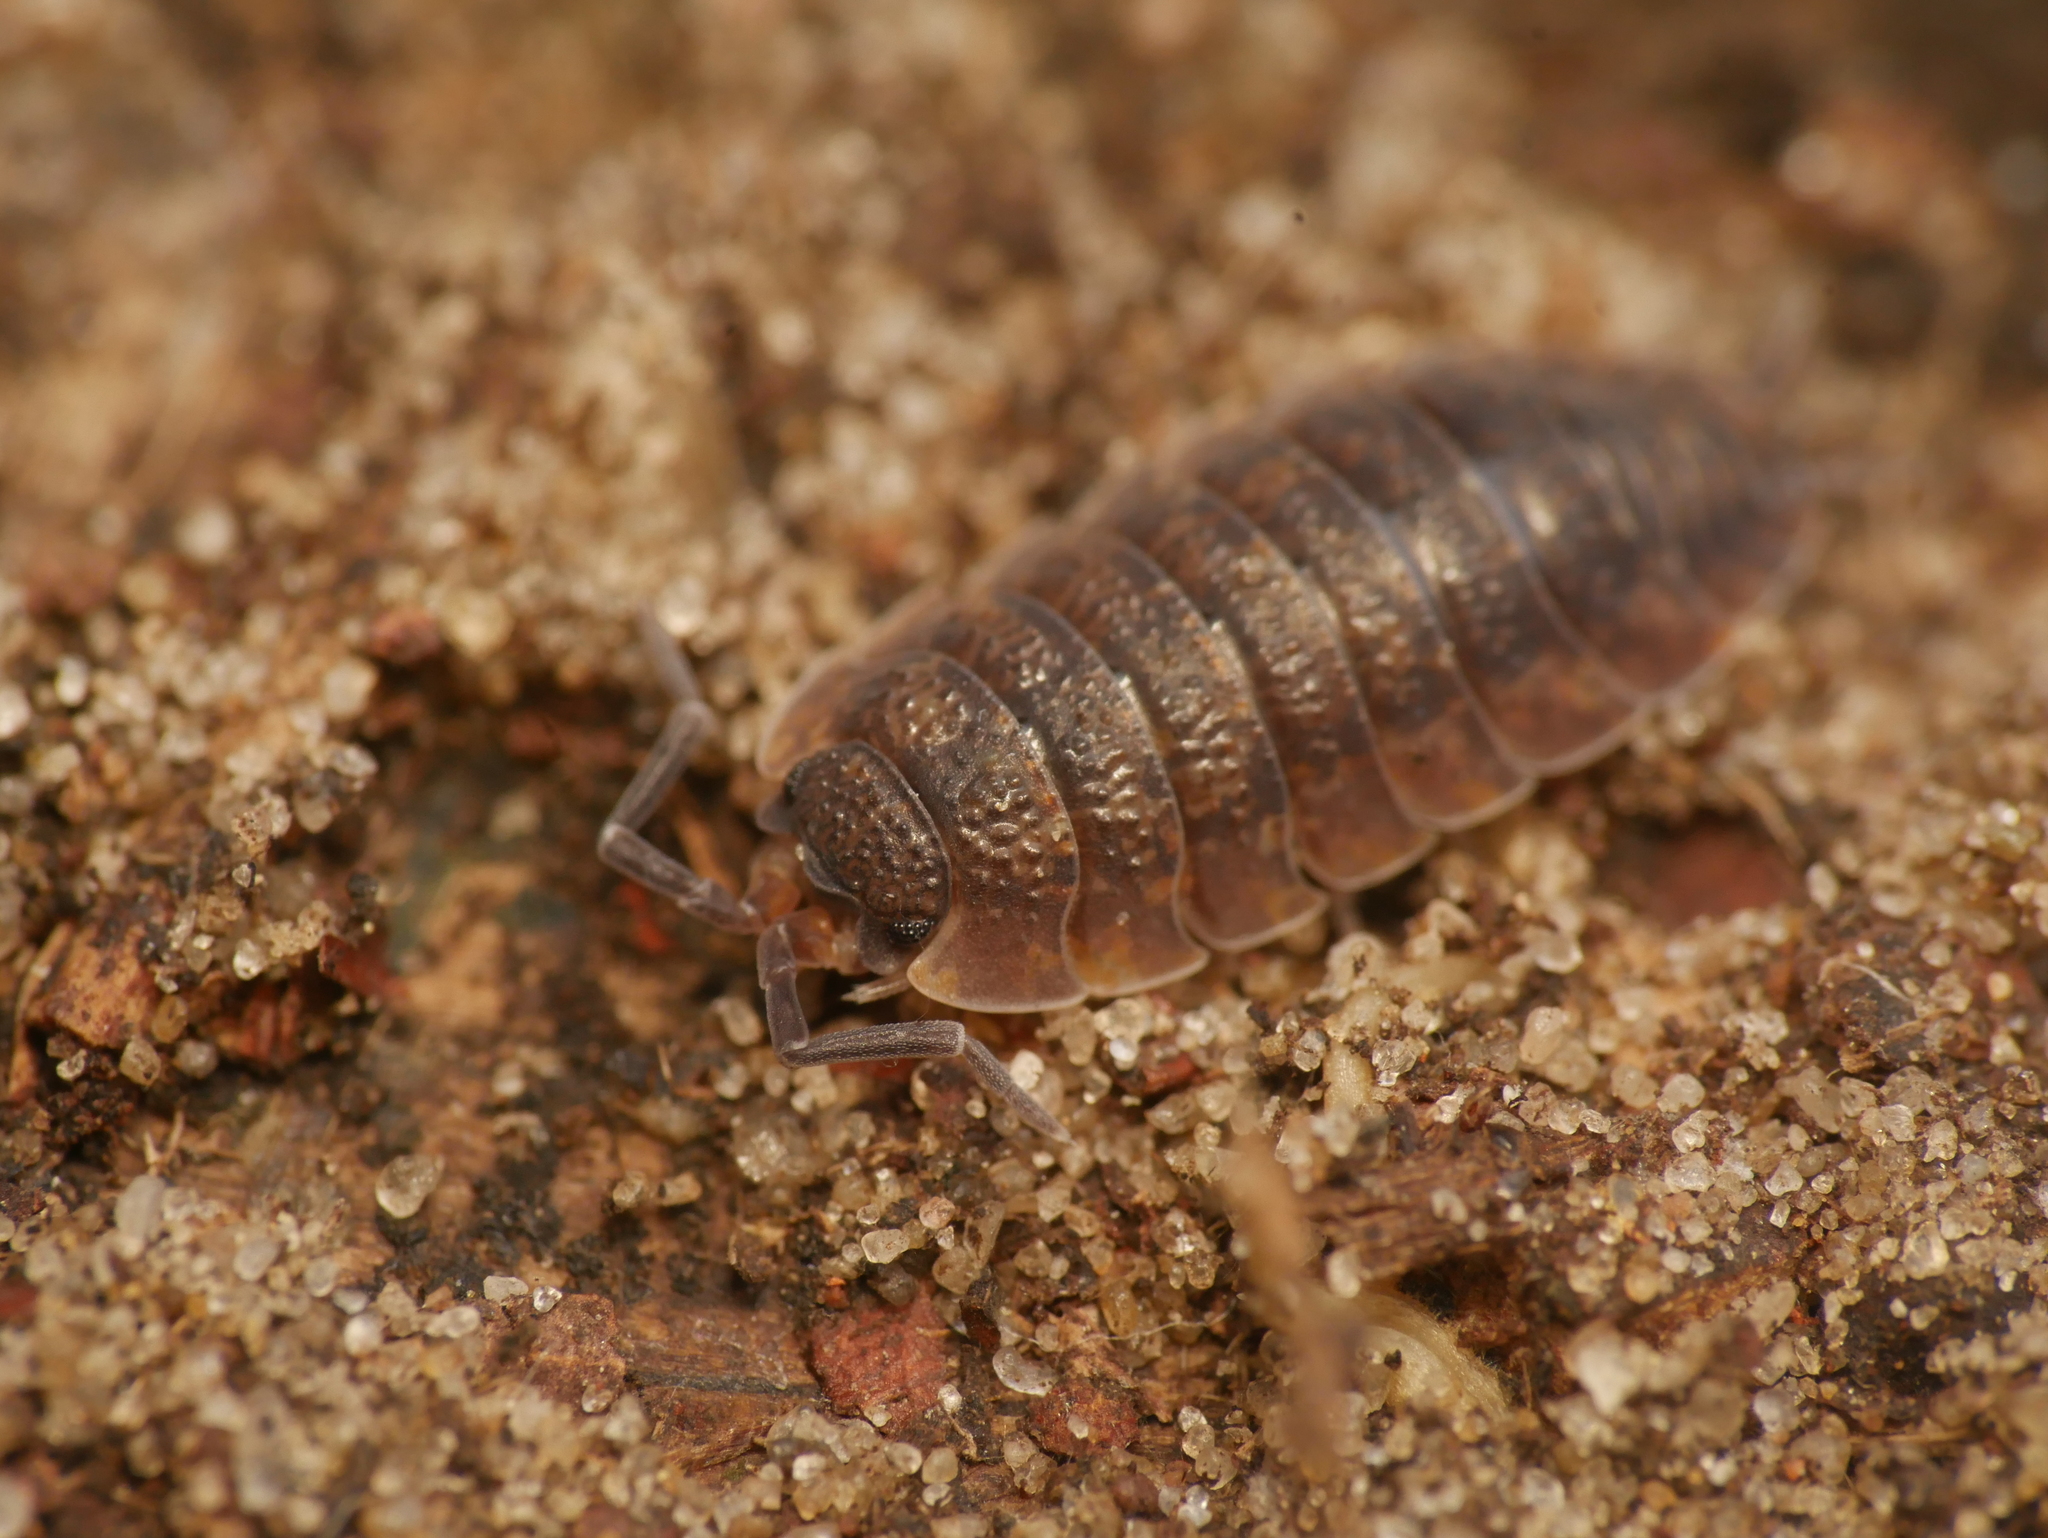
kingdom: Animalia
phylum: Arthropoda
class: Malacostraca
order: Isopoda
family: Porcellionidae
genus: Porcellio
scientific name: Porcellio scaber
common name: Common rough woodlouse
